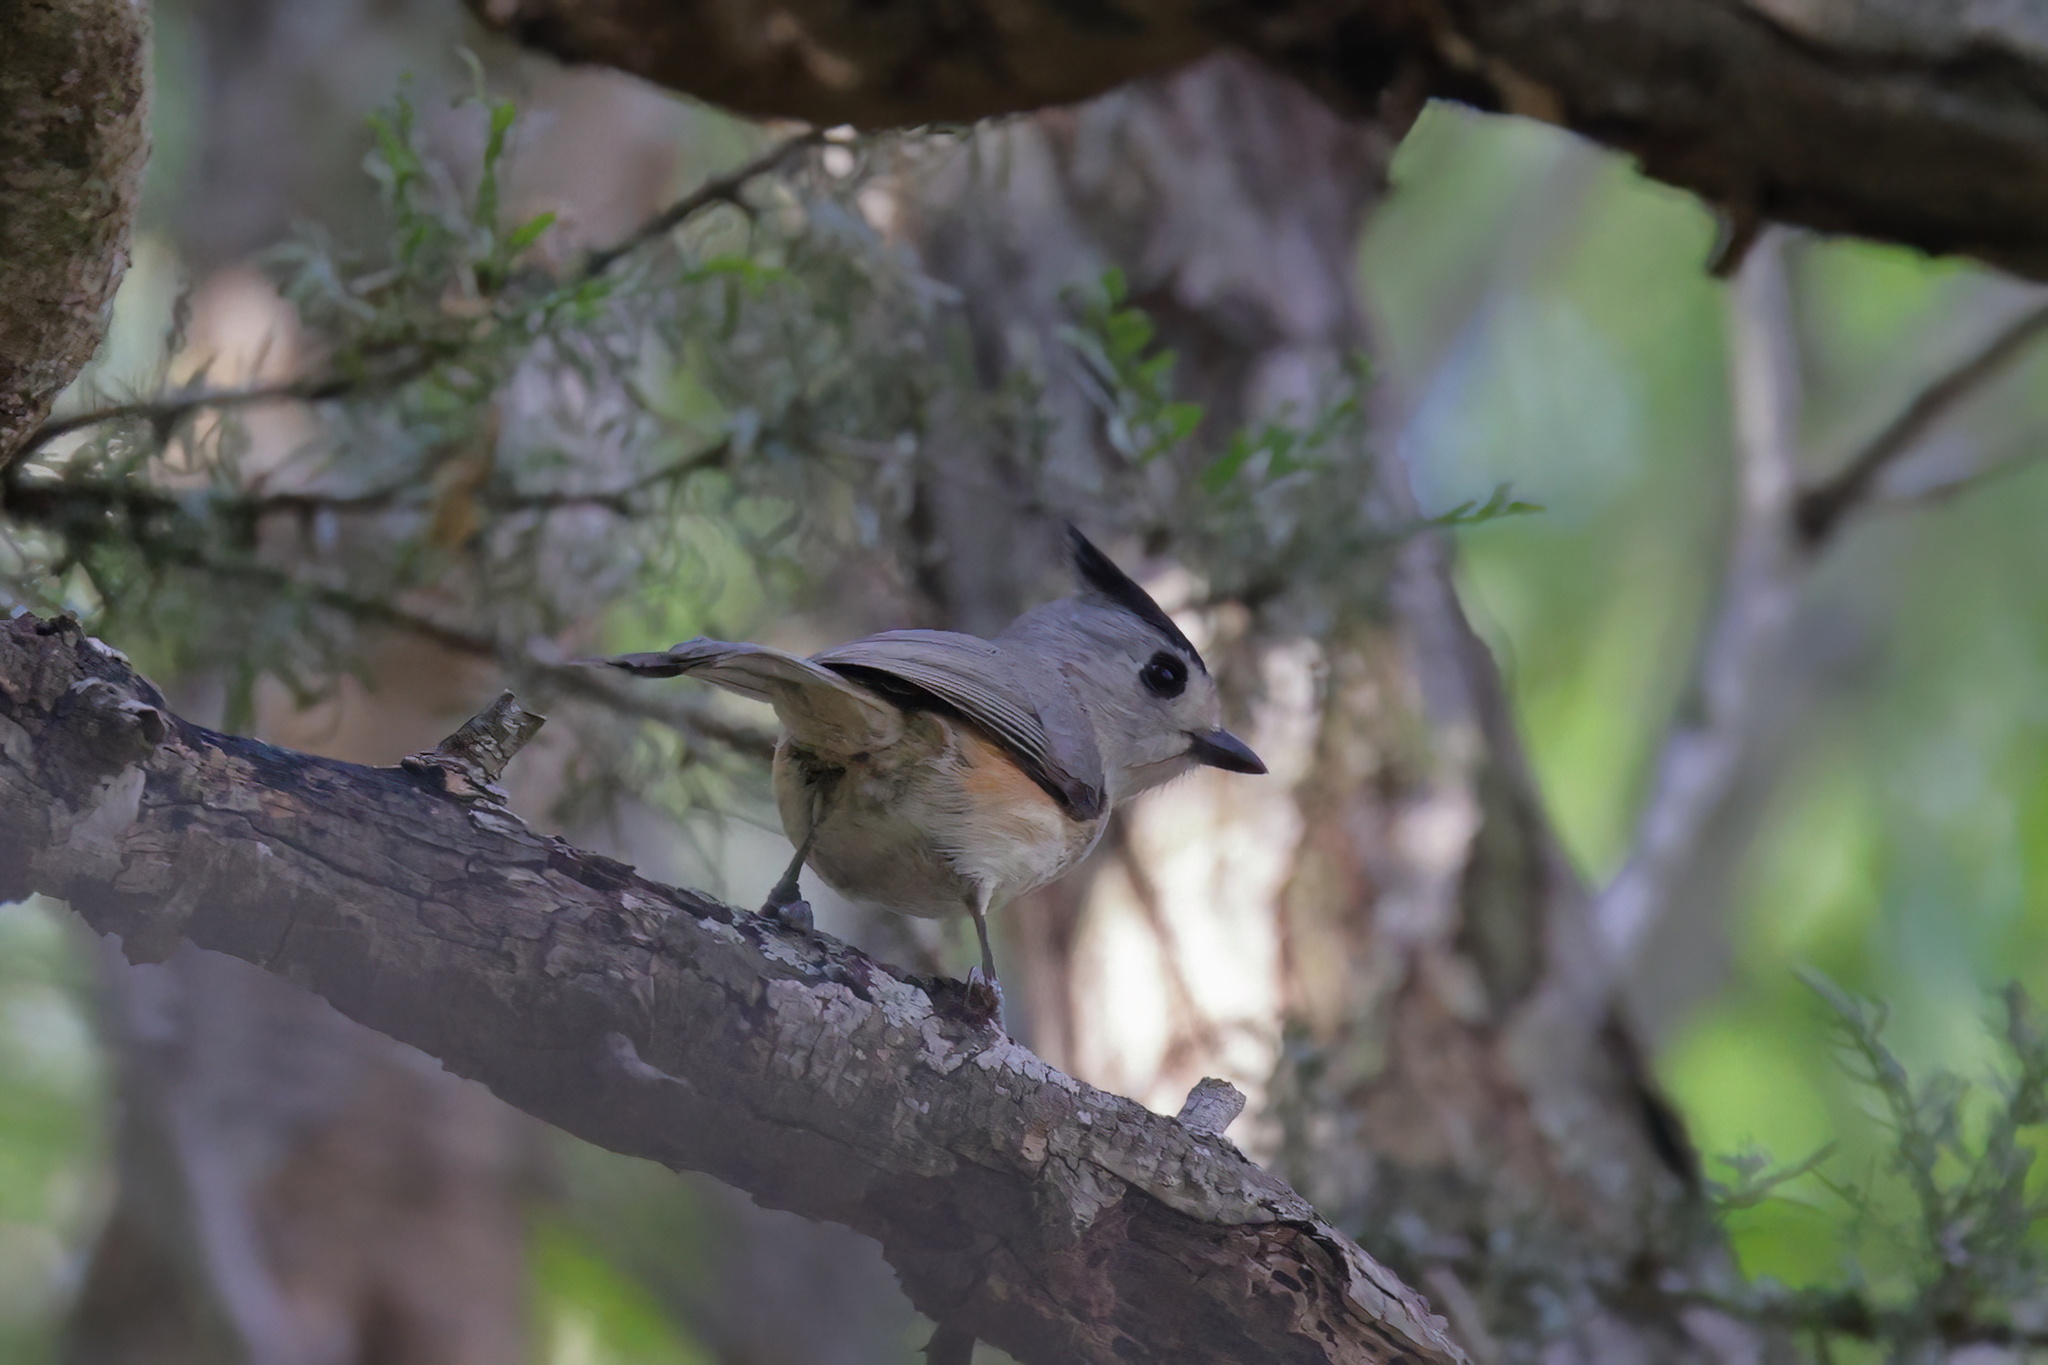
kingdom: Animalia
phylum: Chordata
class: Aves
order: Passeriformes
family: Paridae
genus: Baeolophus
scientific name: Baeolophus atricristatus
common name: Black-crested titmouse
